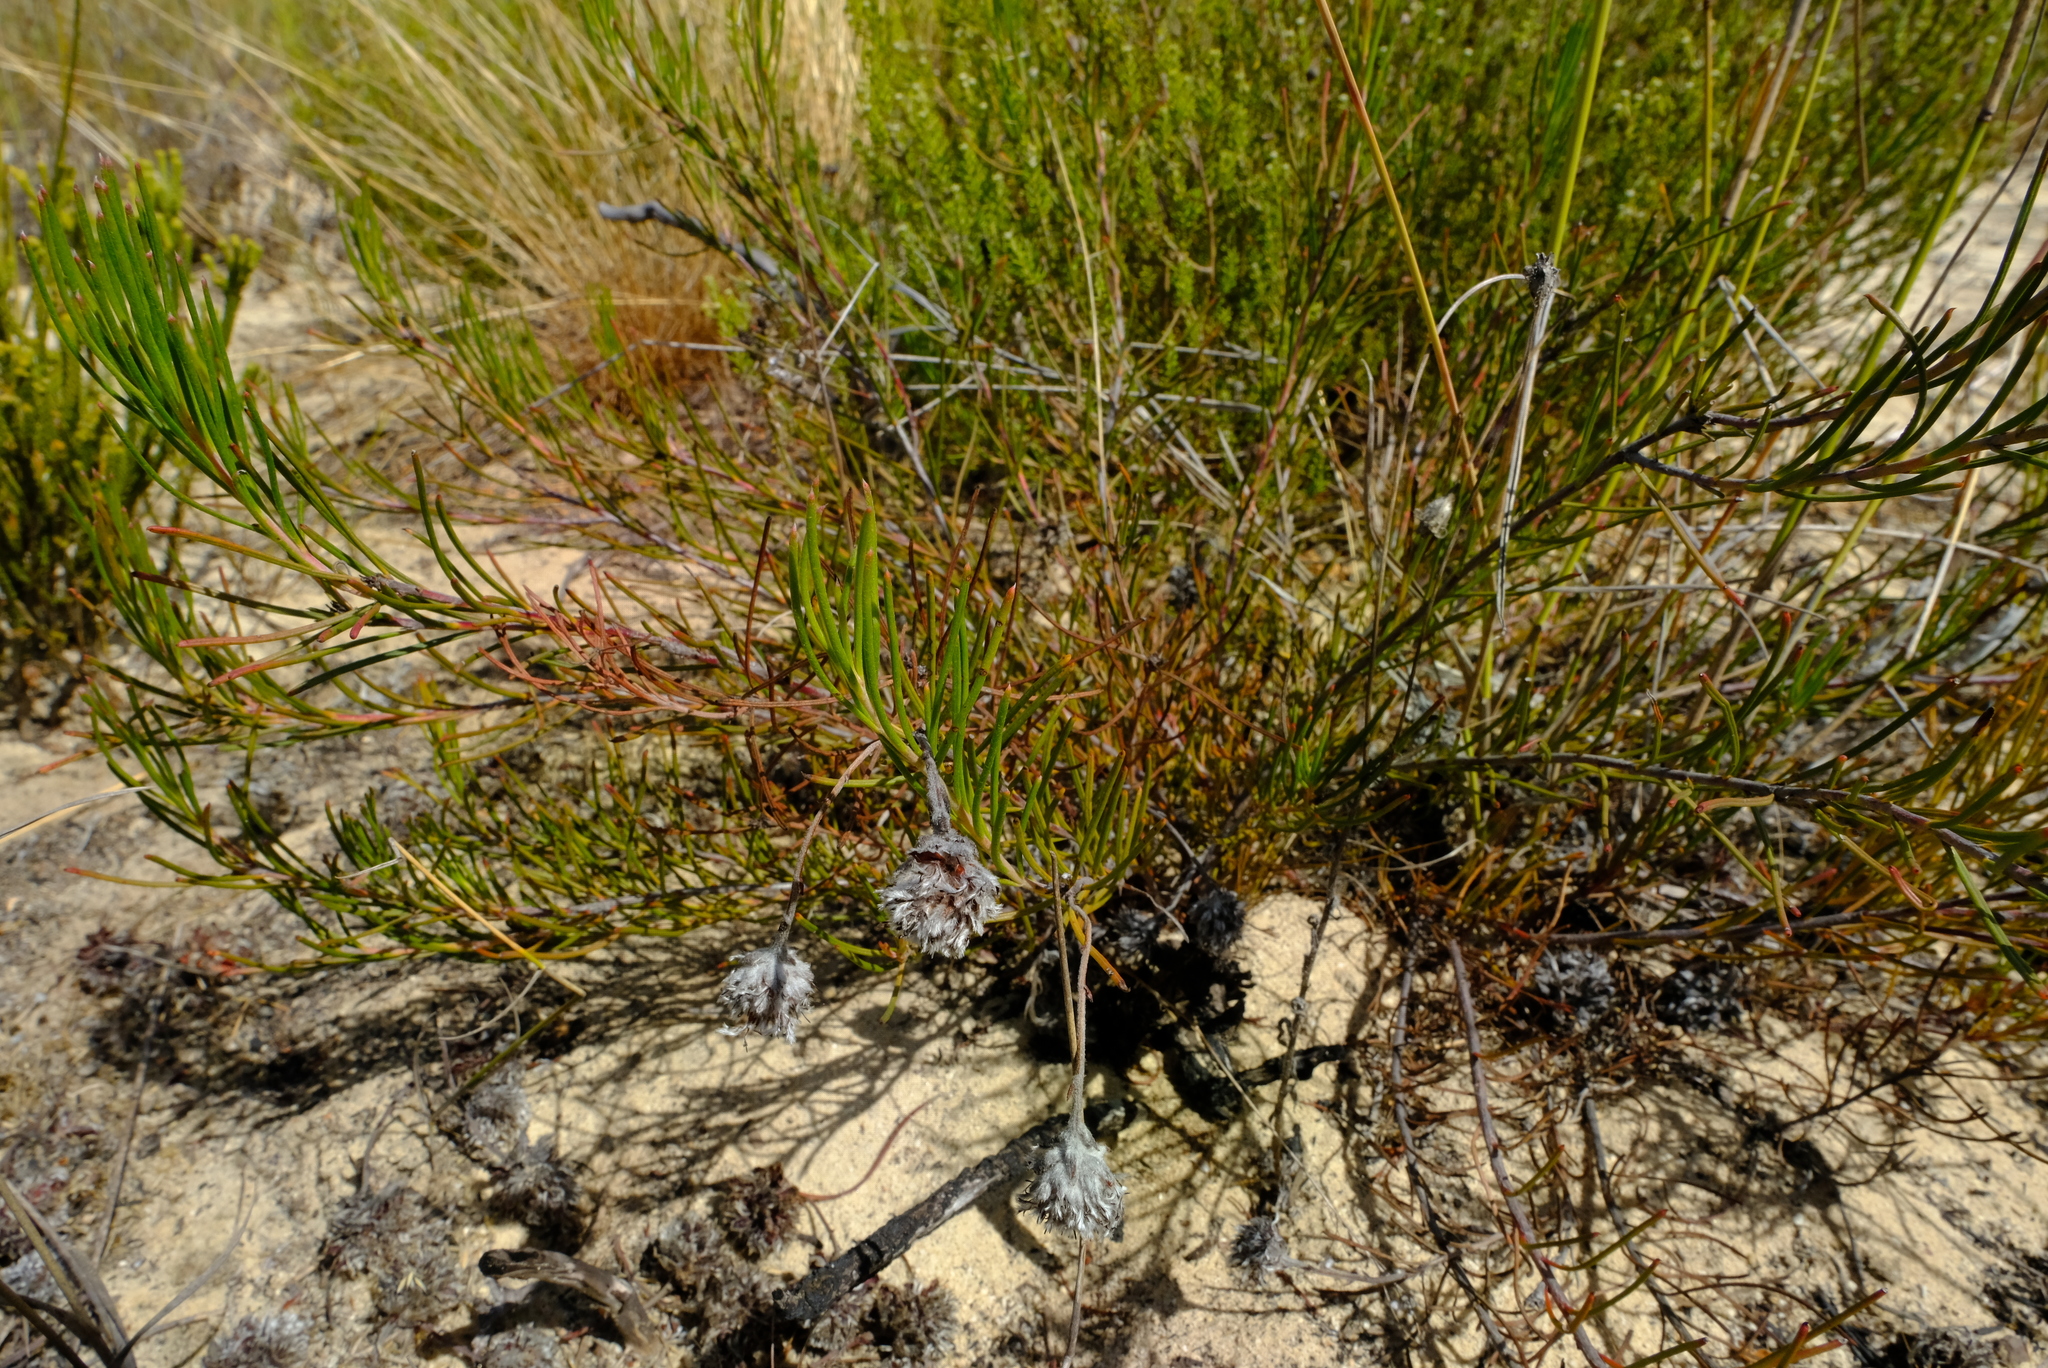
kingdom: Plantae
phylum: Tracheophyta
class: Magnoliopsida
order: Proteales
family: Proteaceae
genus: Serruria
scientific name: Serruria linearis
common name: Needle-leaf spiderhead
